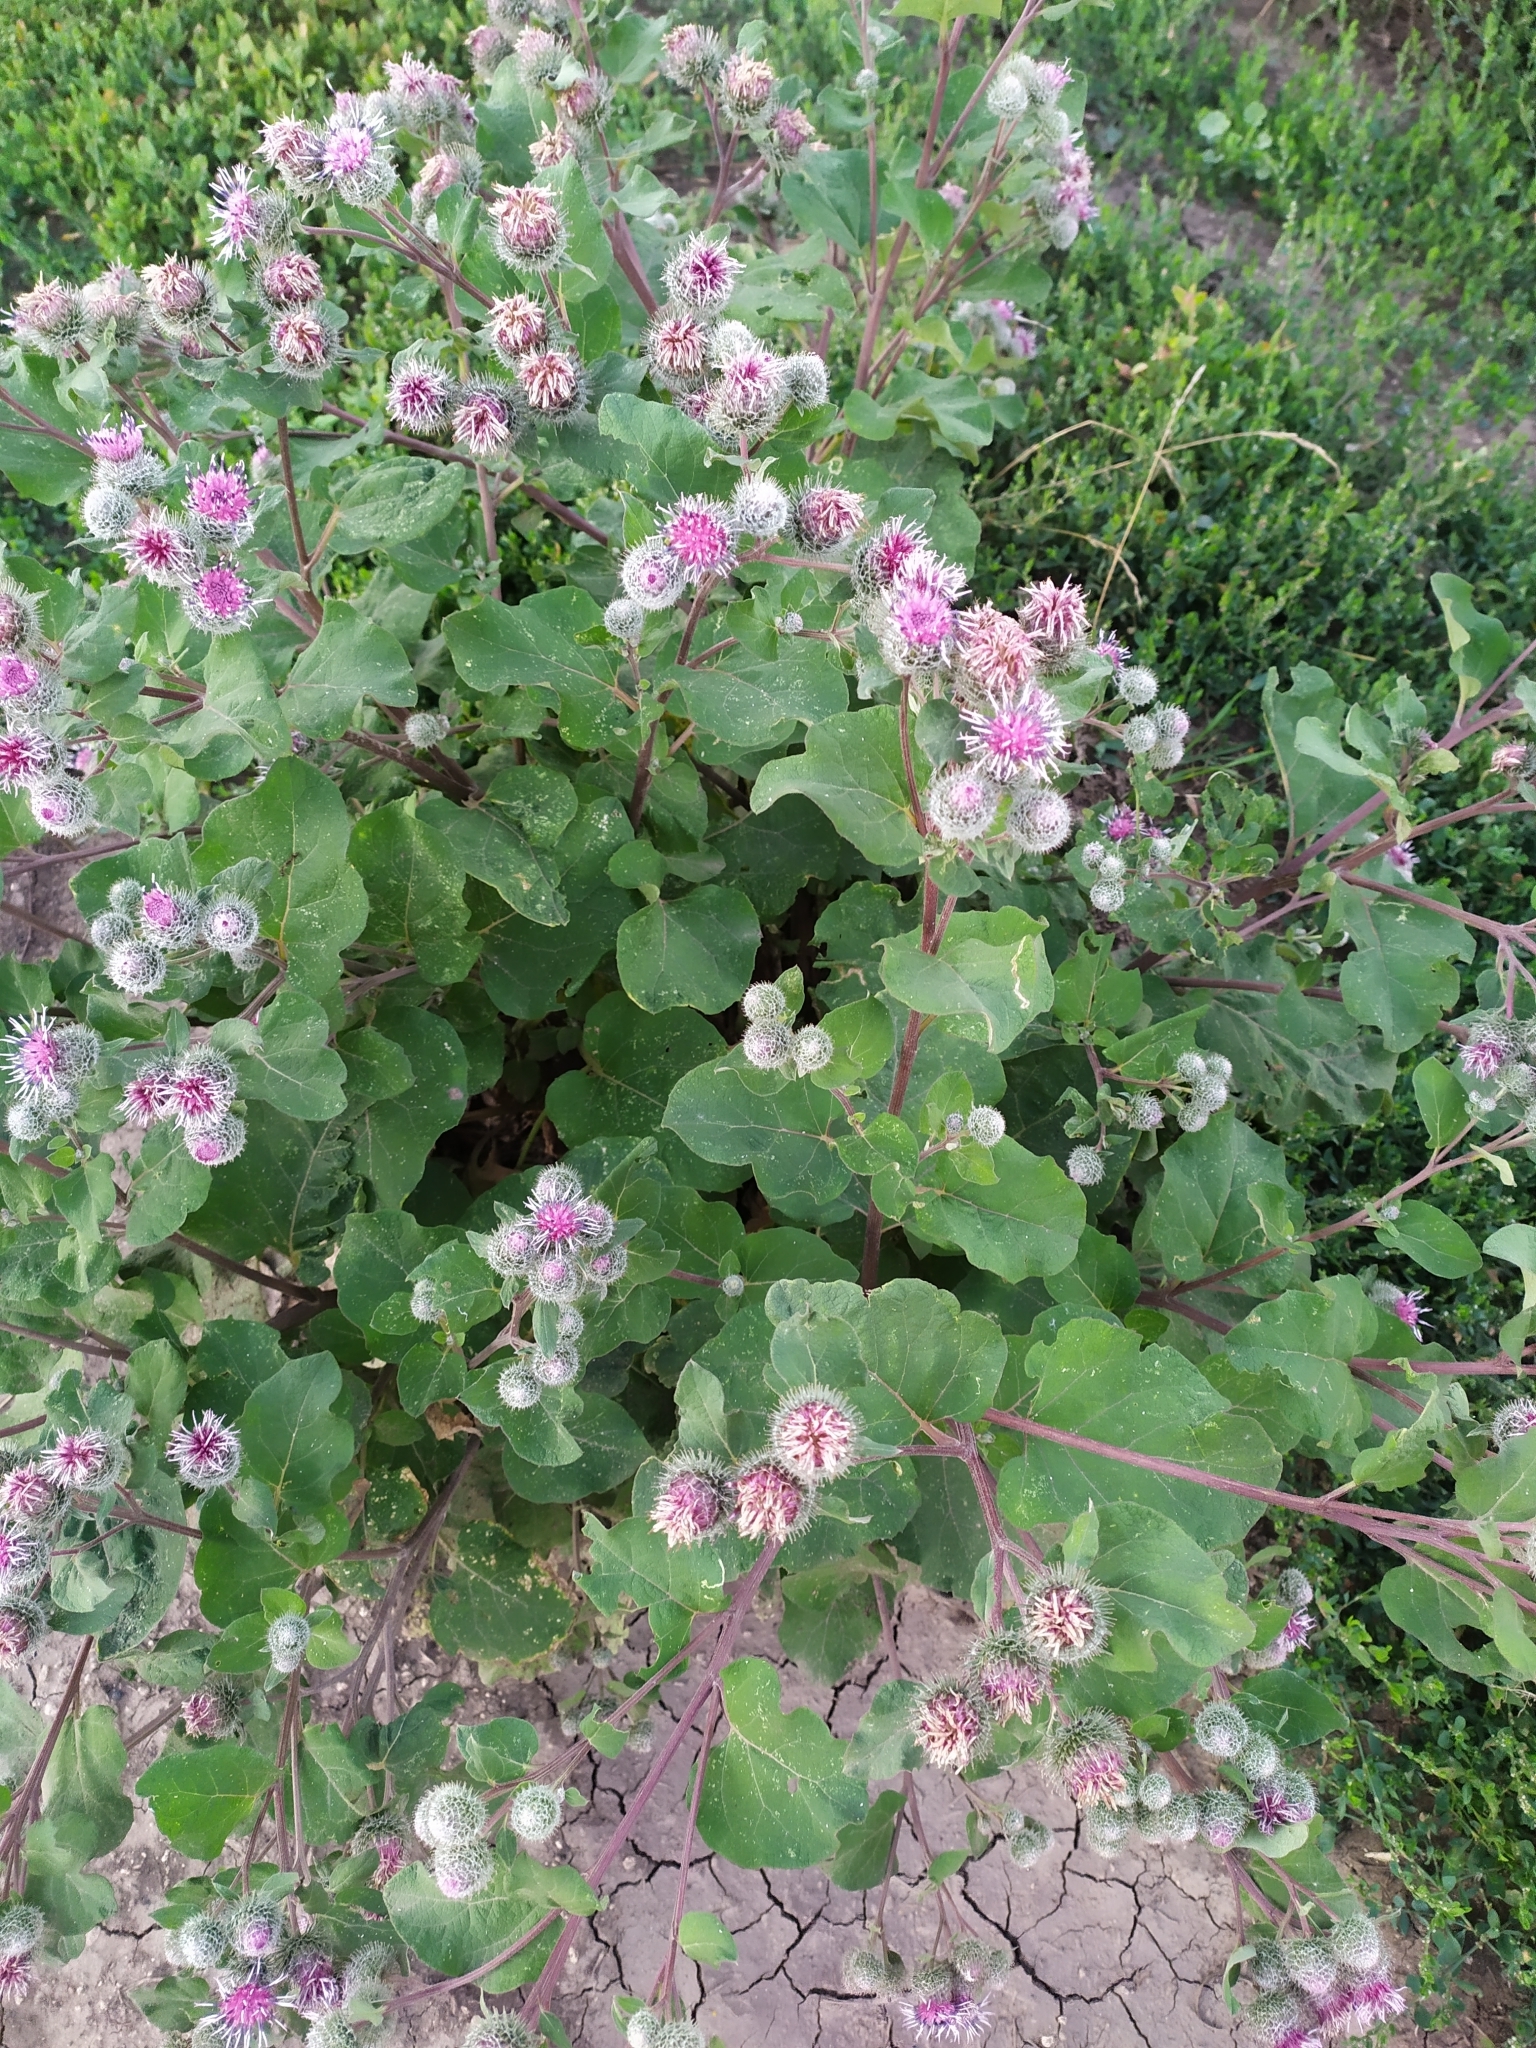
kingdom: Plantae
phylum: Tracheophyta
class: Magnoliopsida
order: Asterales
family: Asteraceae
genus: Arctium
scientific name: Arctium tomentosum
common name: Woolly burdock
